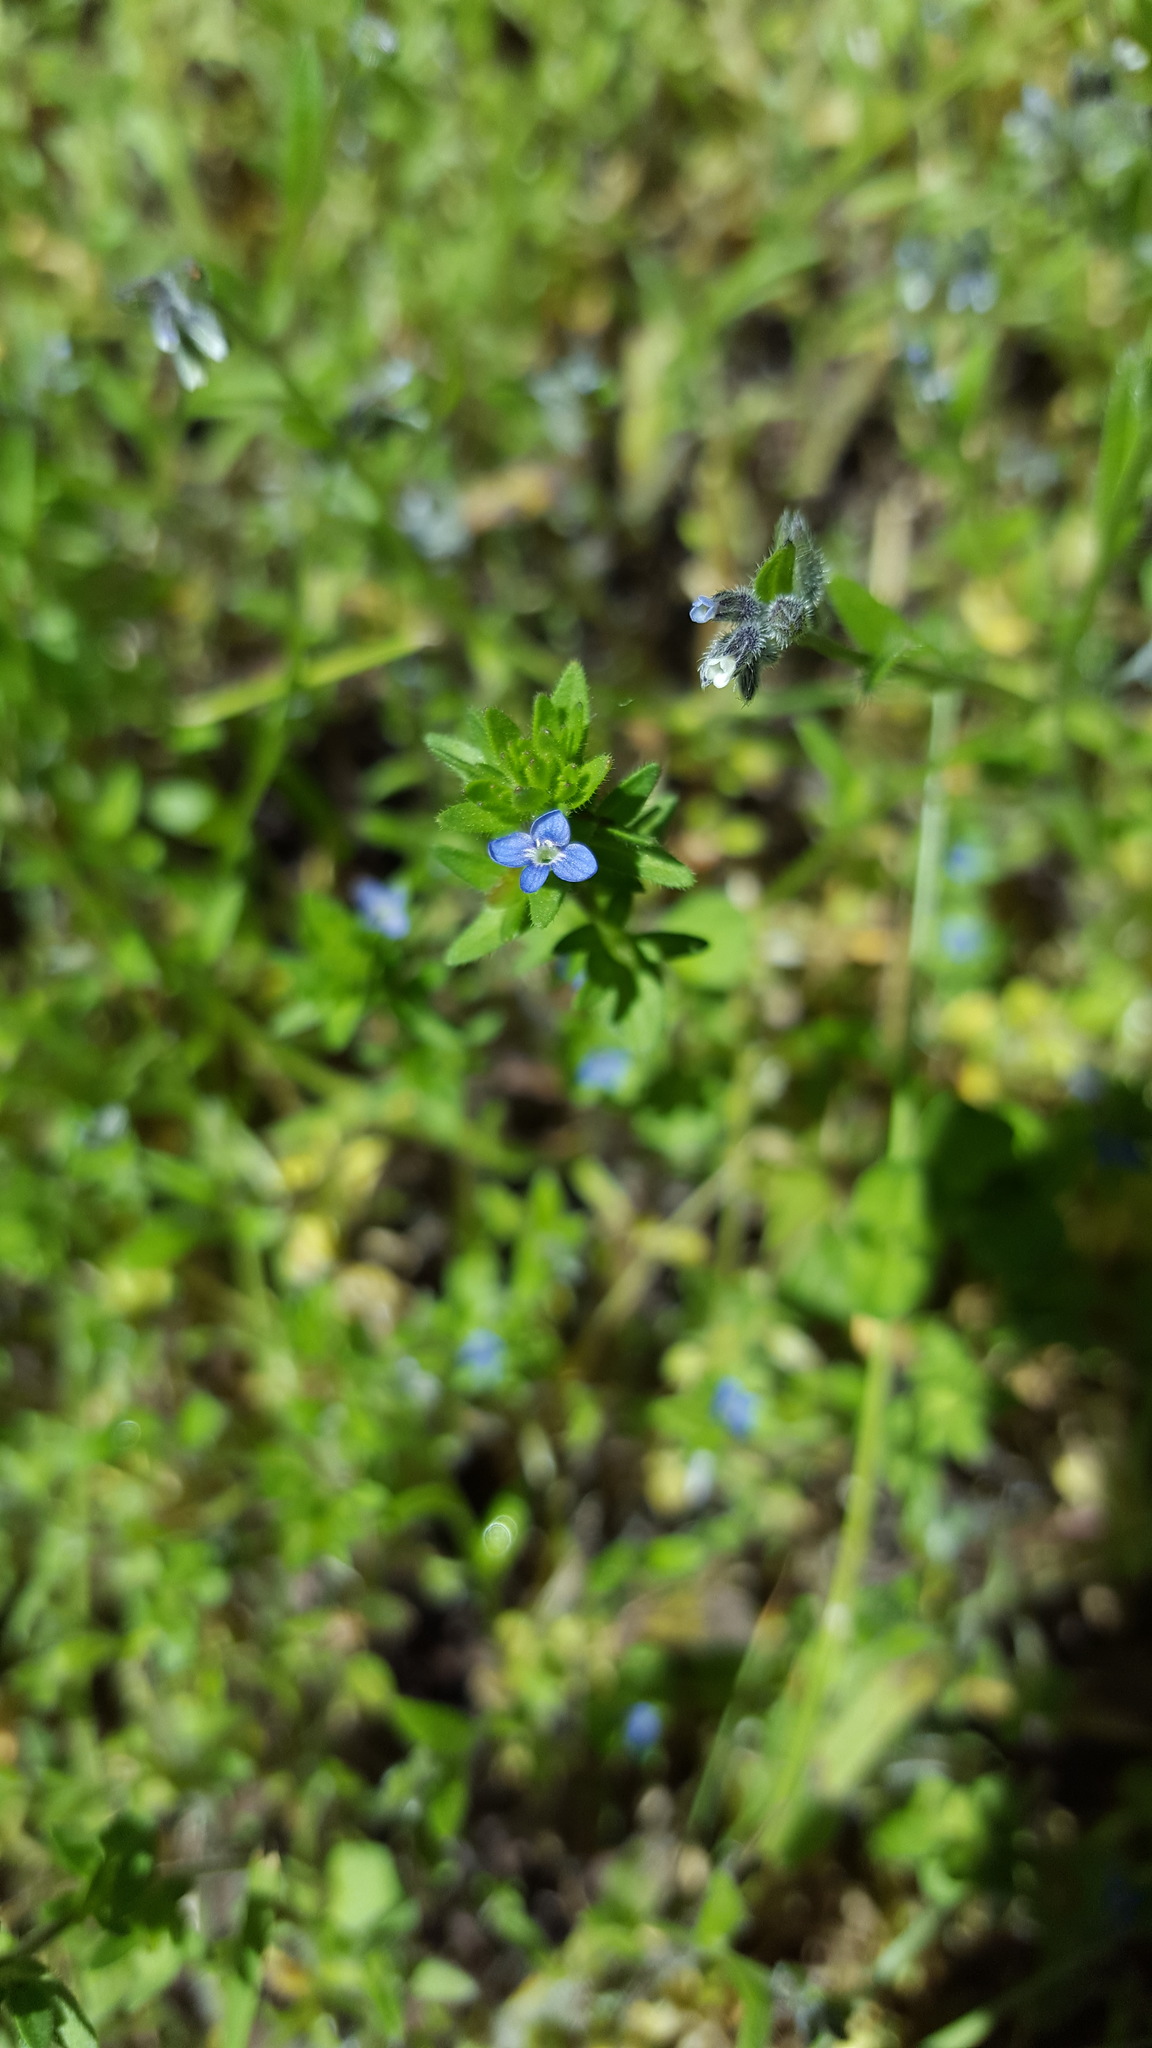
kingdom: Plantae
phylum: Tracheophyta
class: Magnoliopsida
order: Lamiales
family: Plantaginaceae
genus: Veronica
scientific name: Veronica arvensis
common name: Corn speedwell
